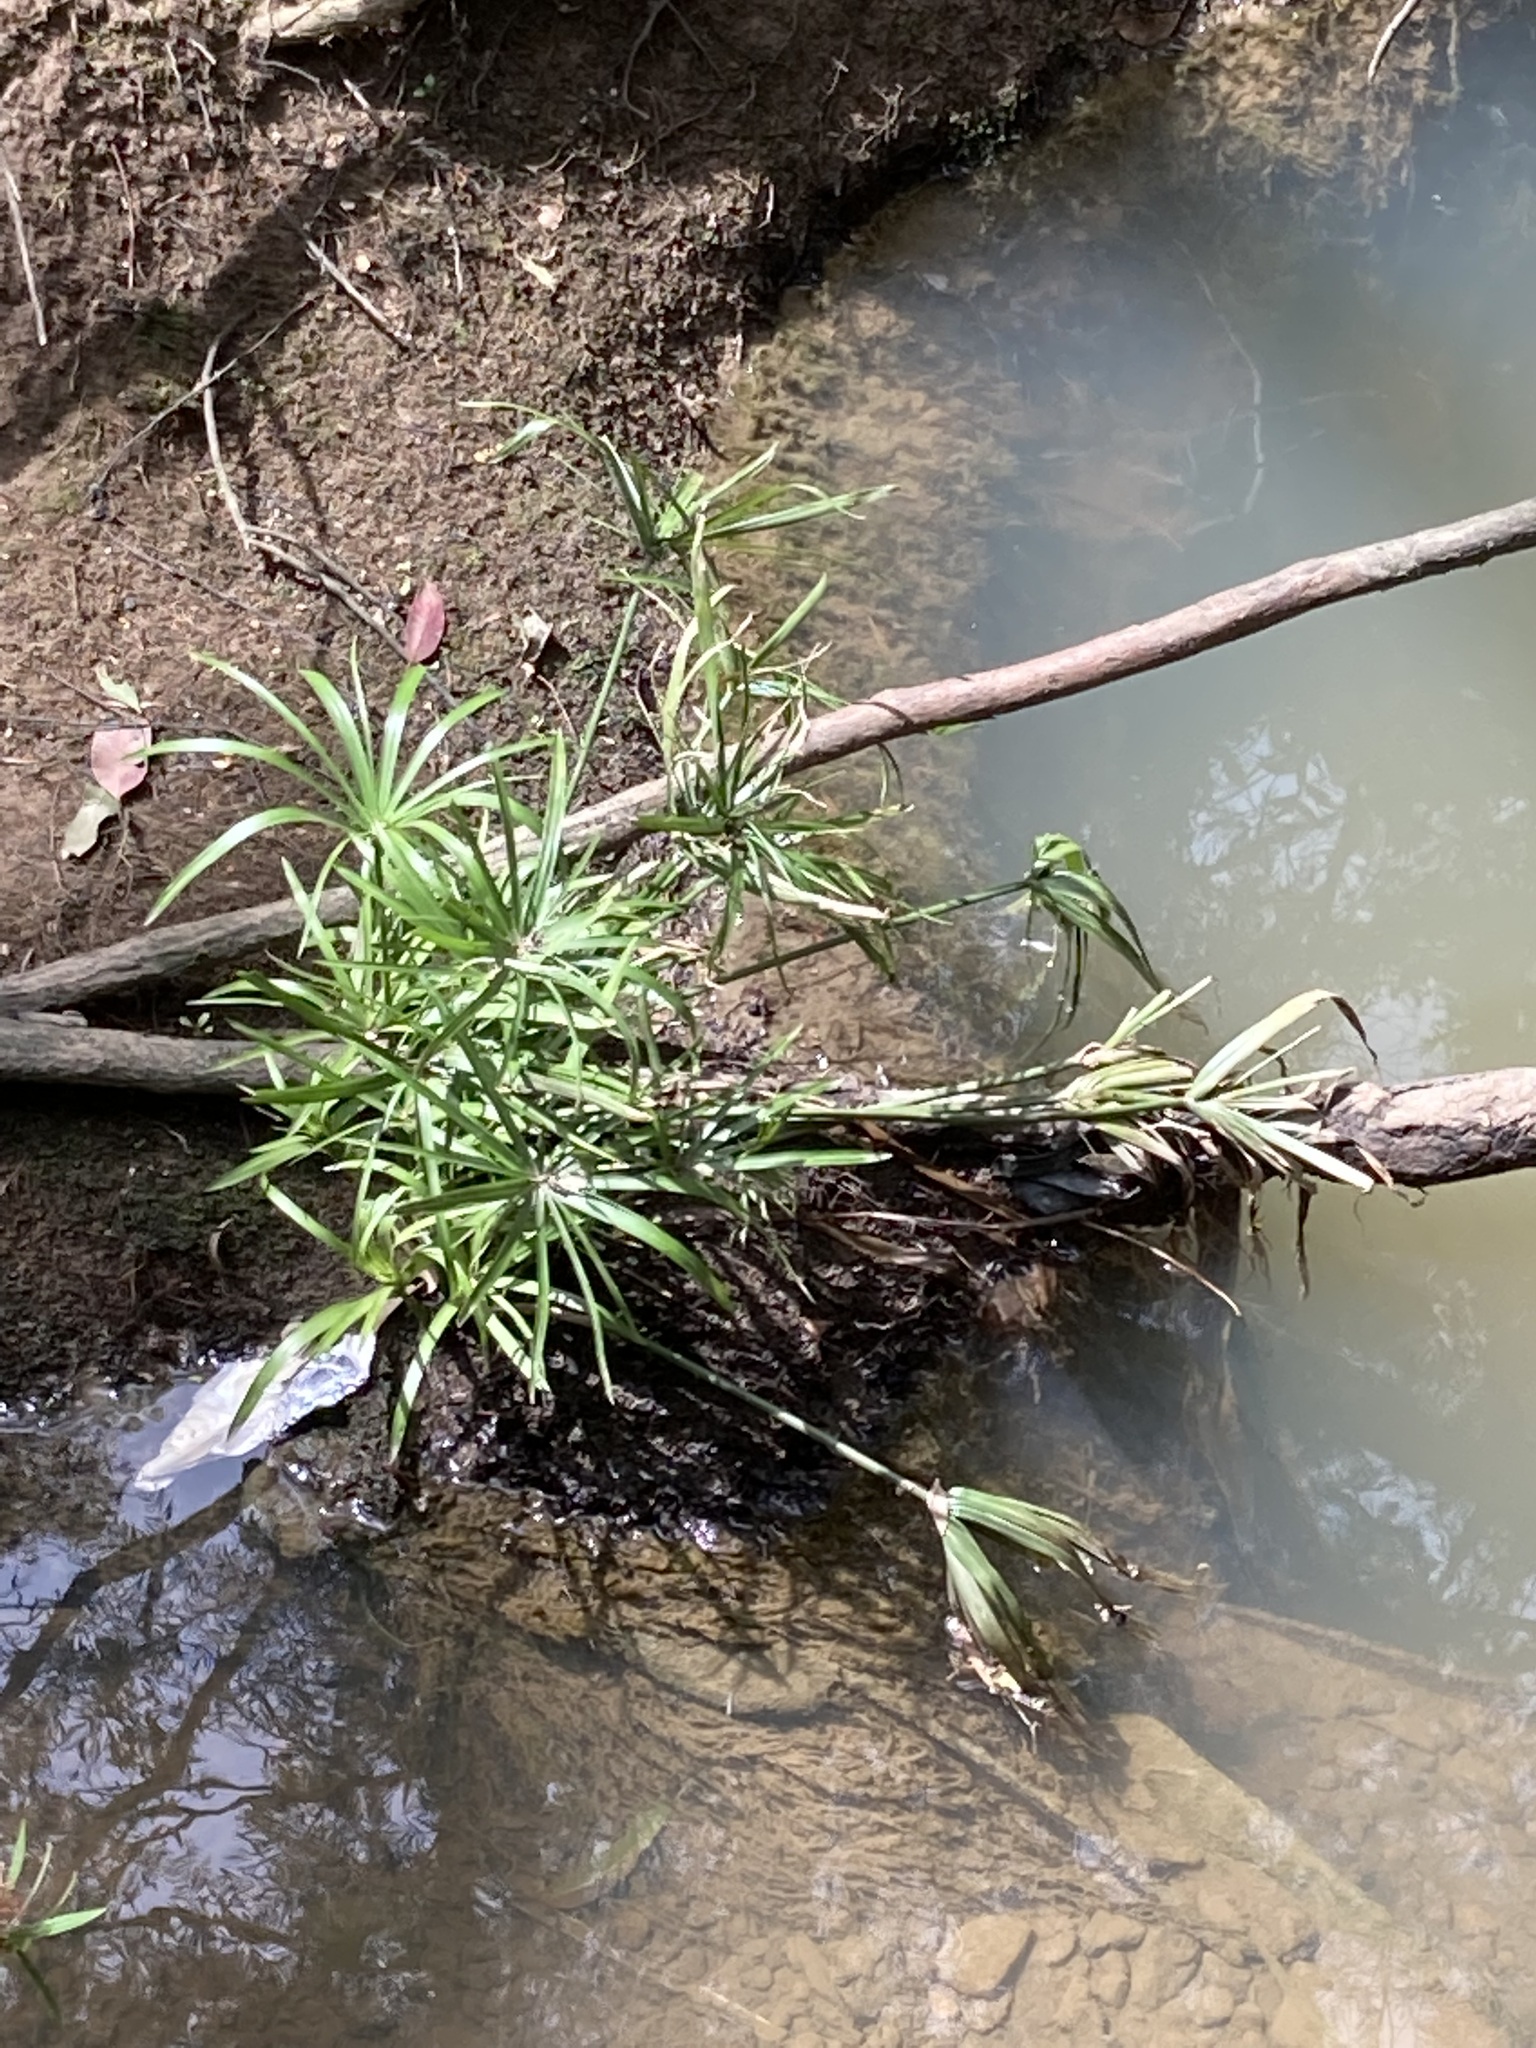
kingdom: Plantae
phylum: Tracheophyta
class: Liliopsida
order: Poales
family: Cyperaceae
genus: Cyperus
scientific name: Cyperus alternifolius
